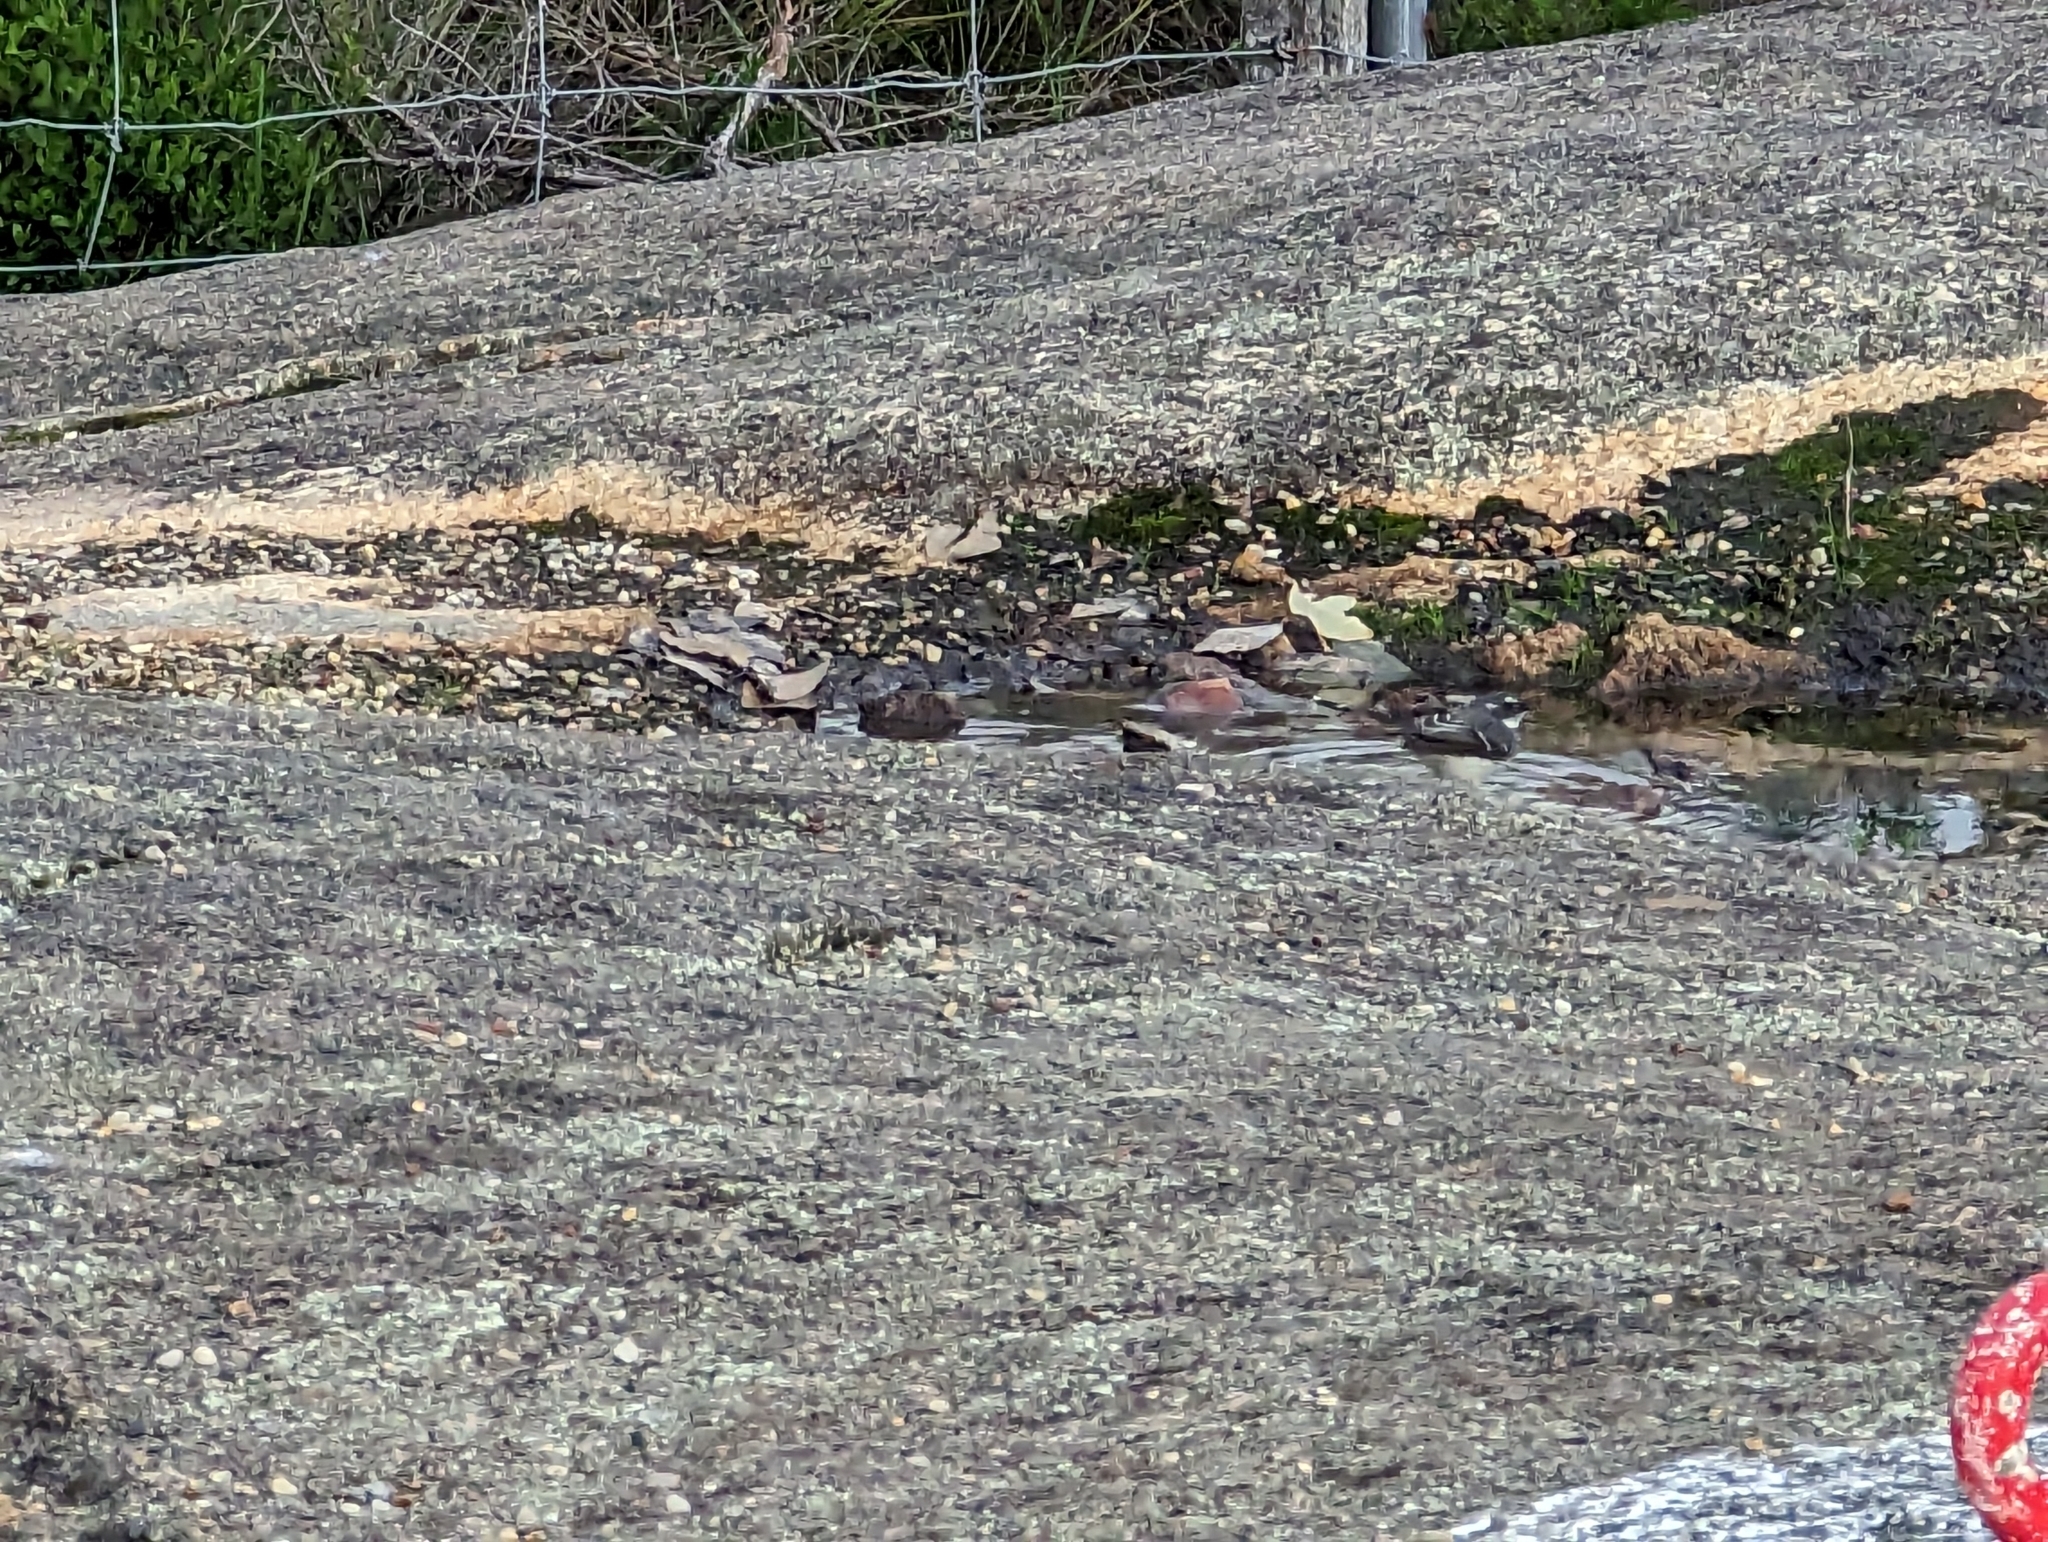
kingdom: Animalia
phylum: Chordata
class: Aves
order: Passeriformes
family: Rhipiduridae
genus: Rhipidura
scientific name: Rhipidura albiscapa
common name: Grey fantail
